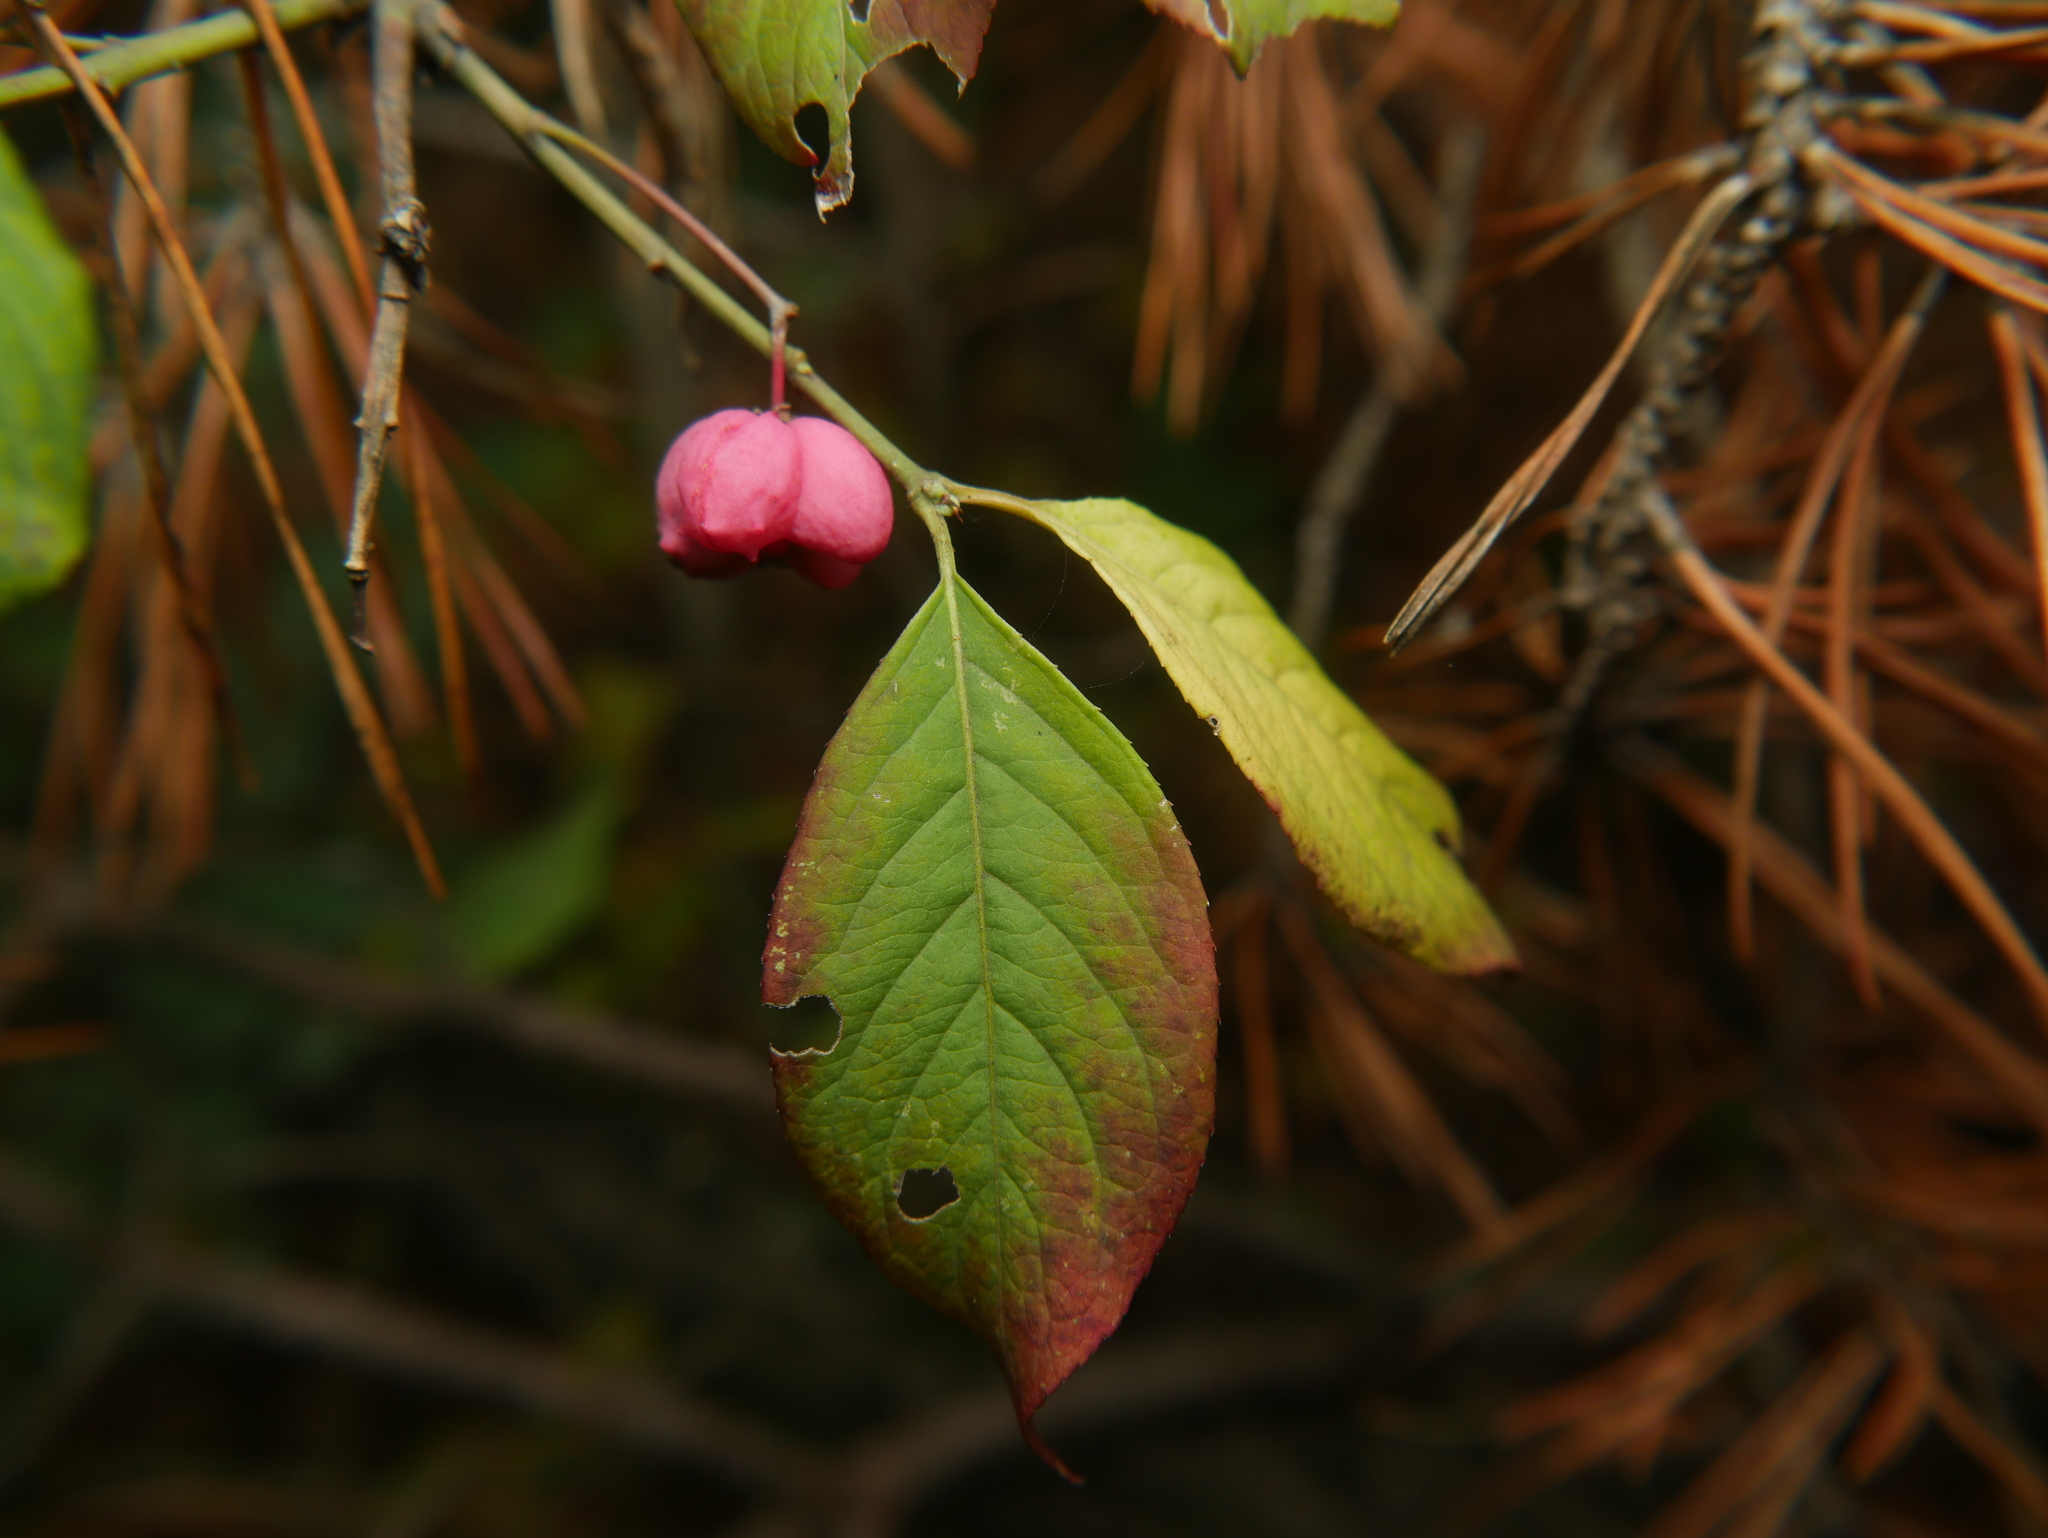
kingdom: Plantae
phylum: Tracheophyta
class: Magnoliopsida
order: Celastrales
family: Celastraceae
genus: Euonymus
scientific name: Euonymus europaeus
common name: Spindle
